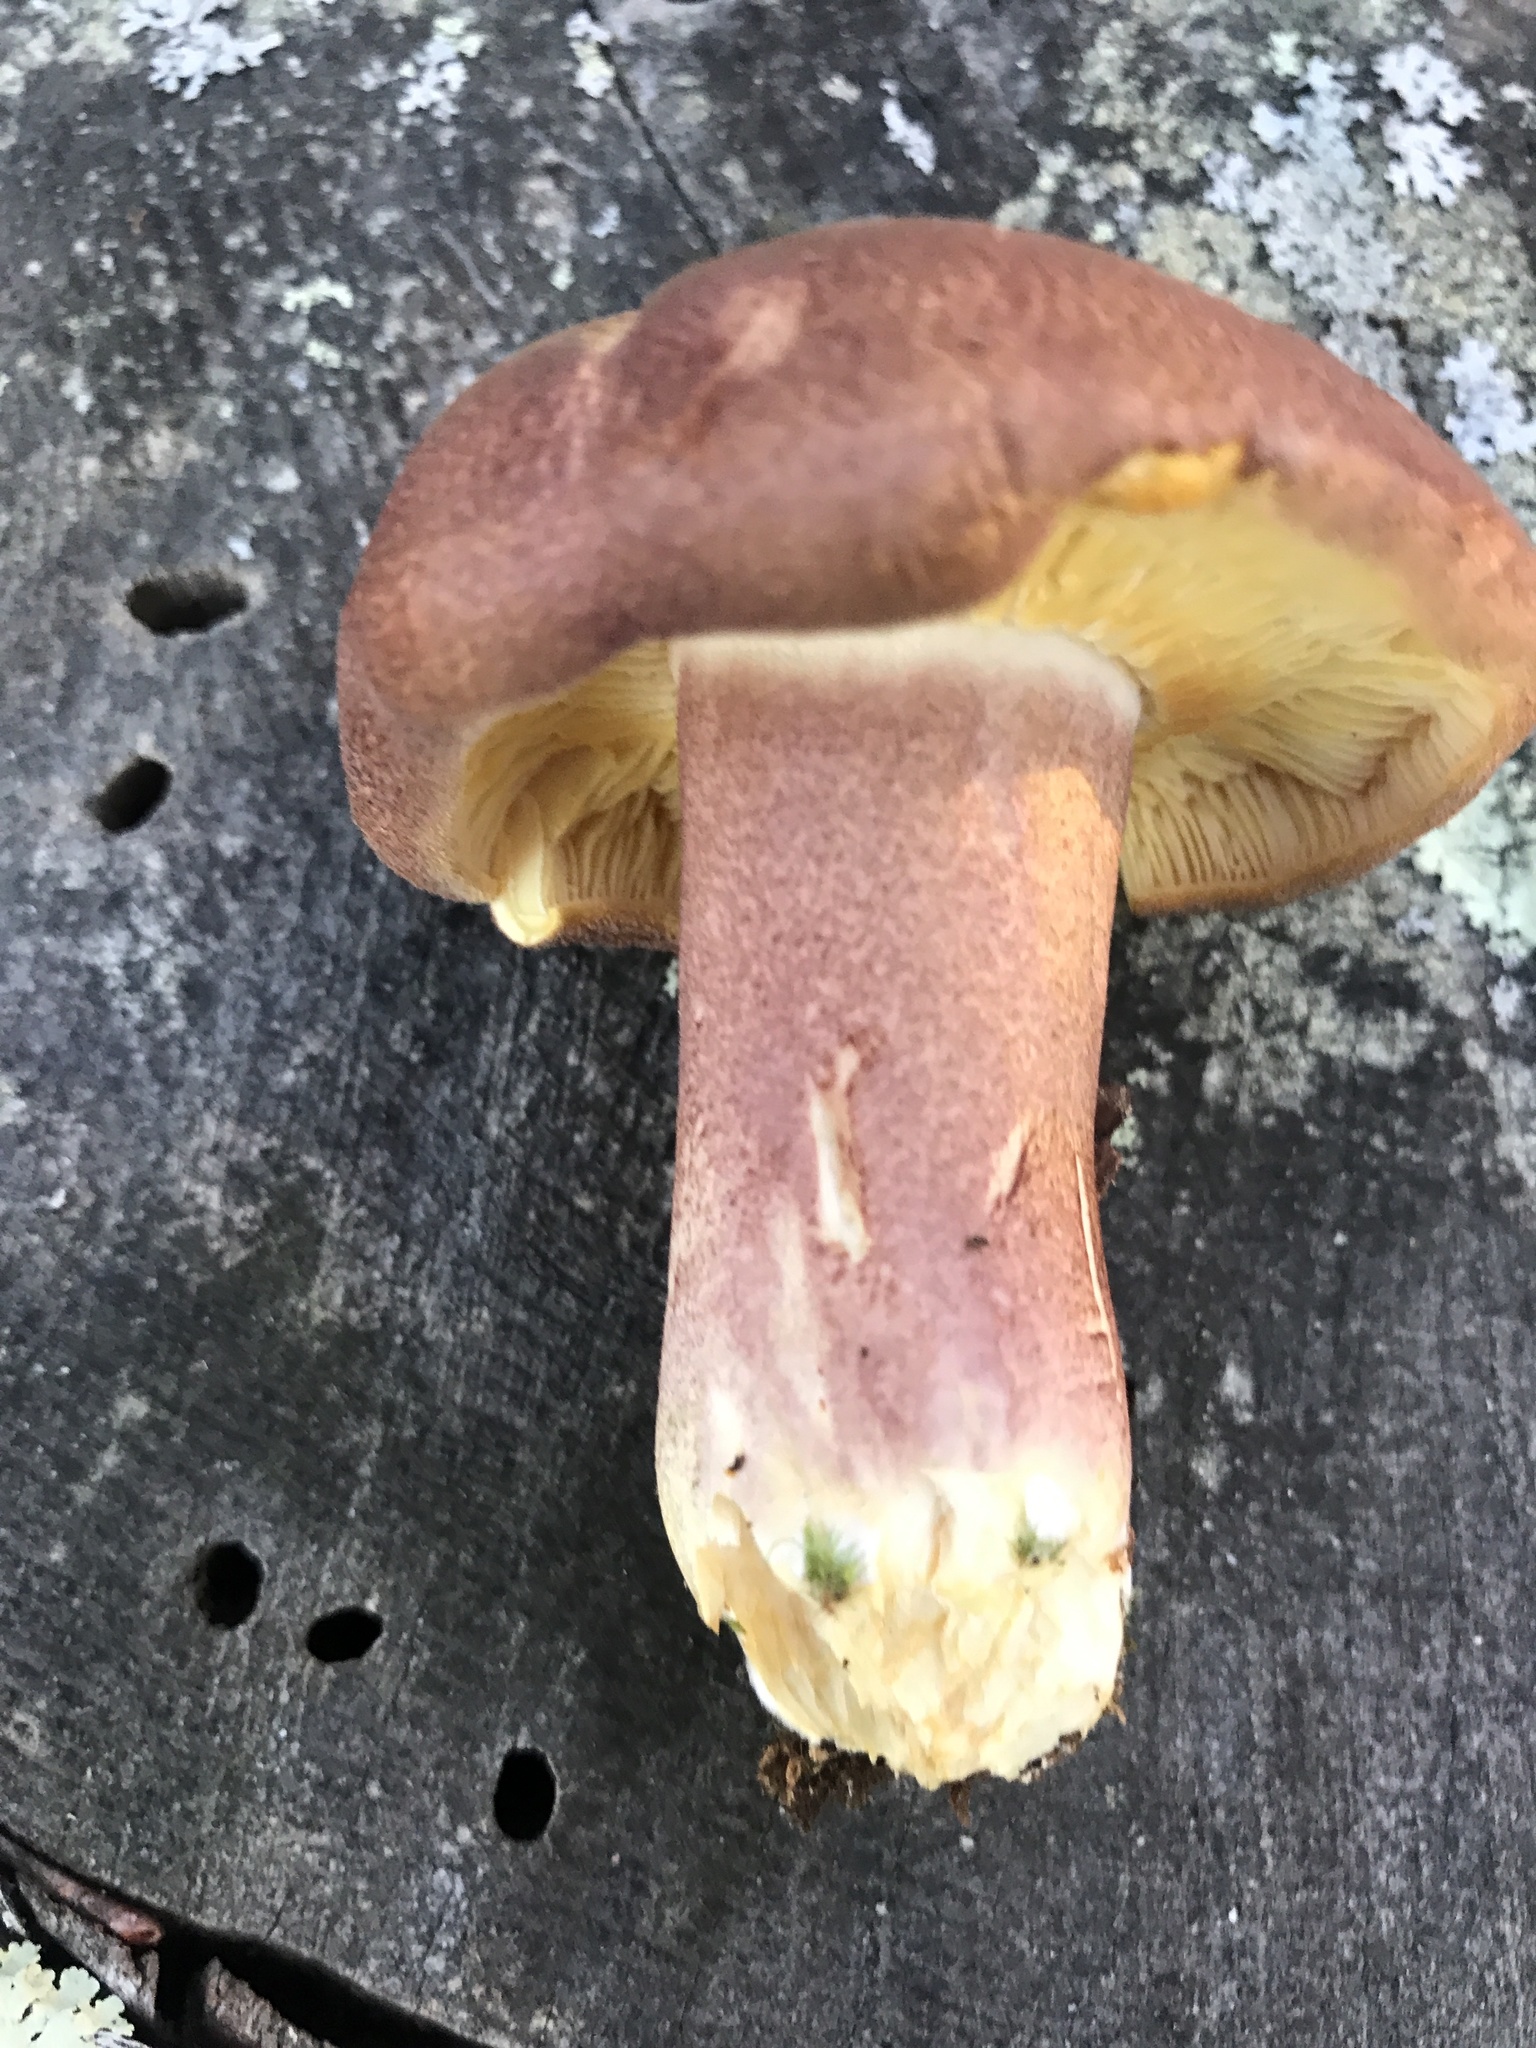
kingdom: Fungi
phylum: Basidiomycota
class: Agaricomycetes
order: Agaricales
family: Tricholomataceae
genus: Tricholomopsis
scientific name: Tricholomopsis rutilans
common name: Plums and custard
